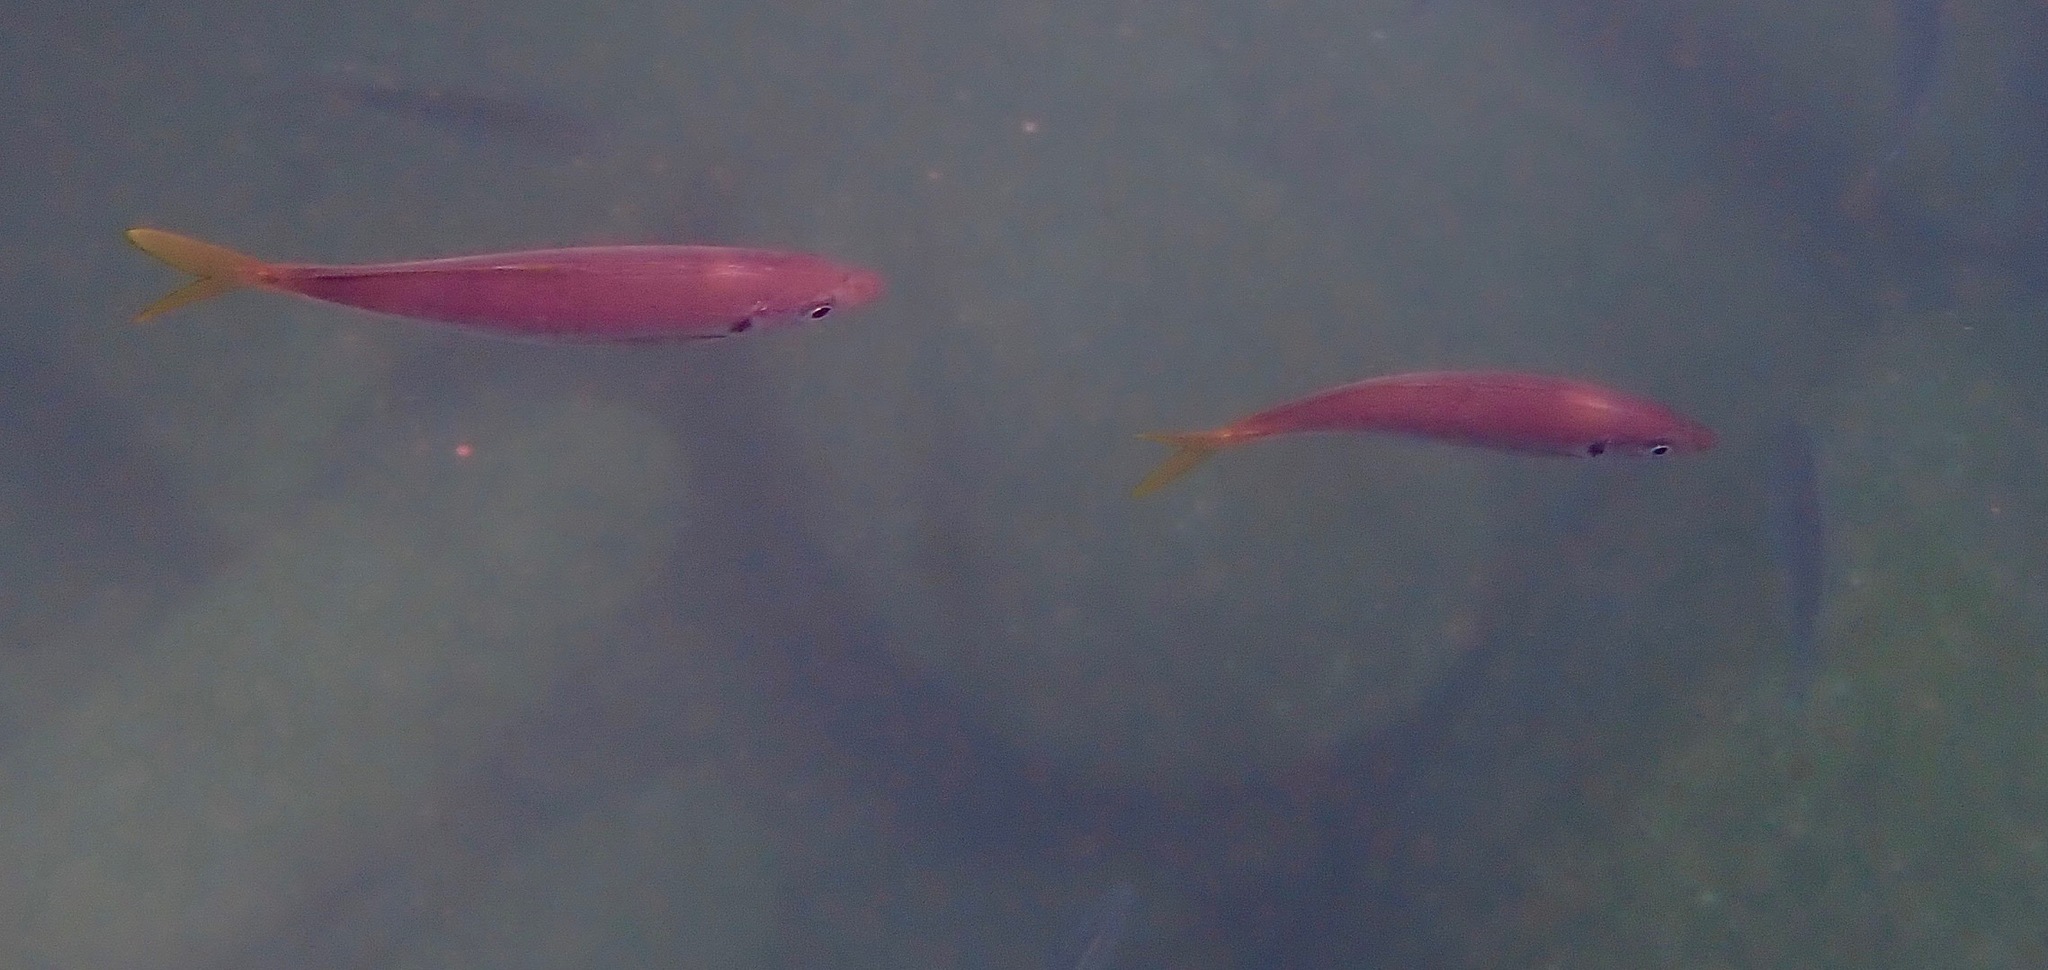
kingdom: Animalia
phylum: Chordata
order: Perciformes
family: Carangidae
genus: Trachurus
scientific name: Trachurus novaezelandiae
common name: Yellowtail horse mackerel
